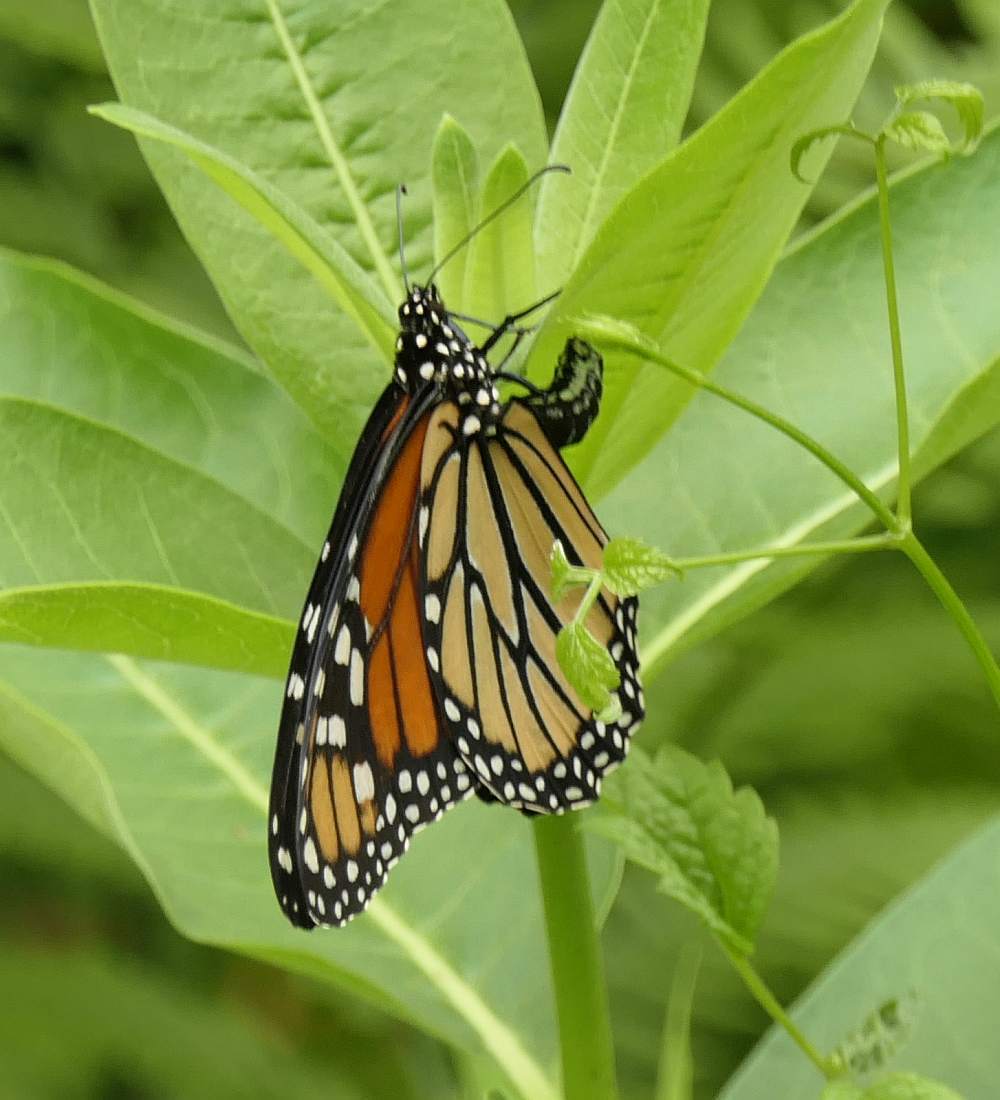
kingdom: Animalia
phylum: Arthropoda
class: Insecta
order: Lepidoptera
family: Nymphalidae
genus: Danaus
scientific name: Danaus plexippus
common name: Monarch
